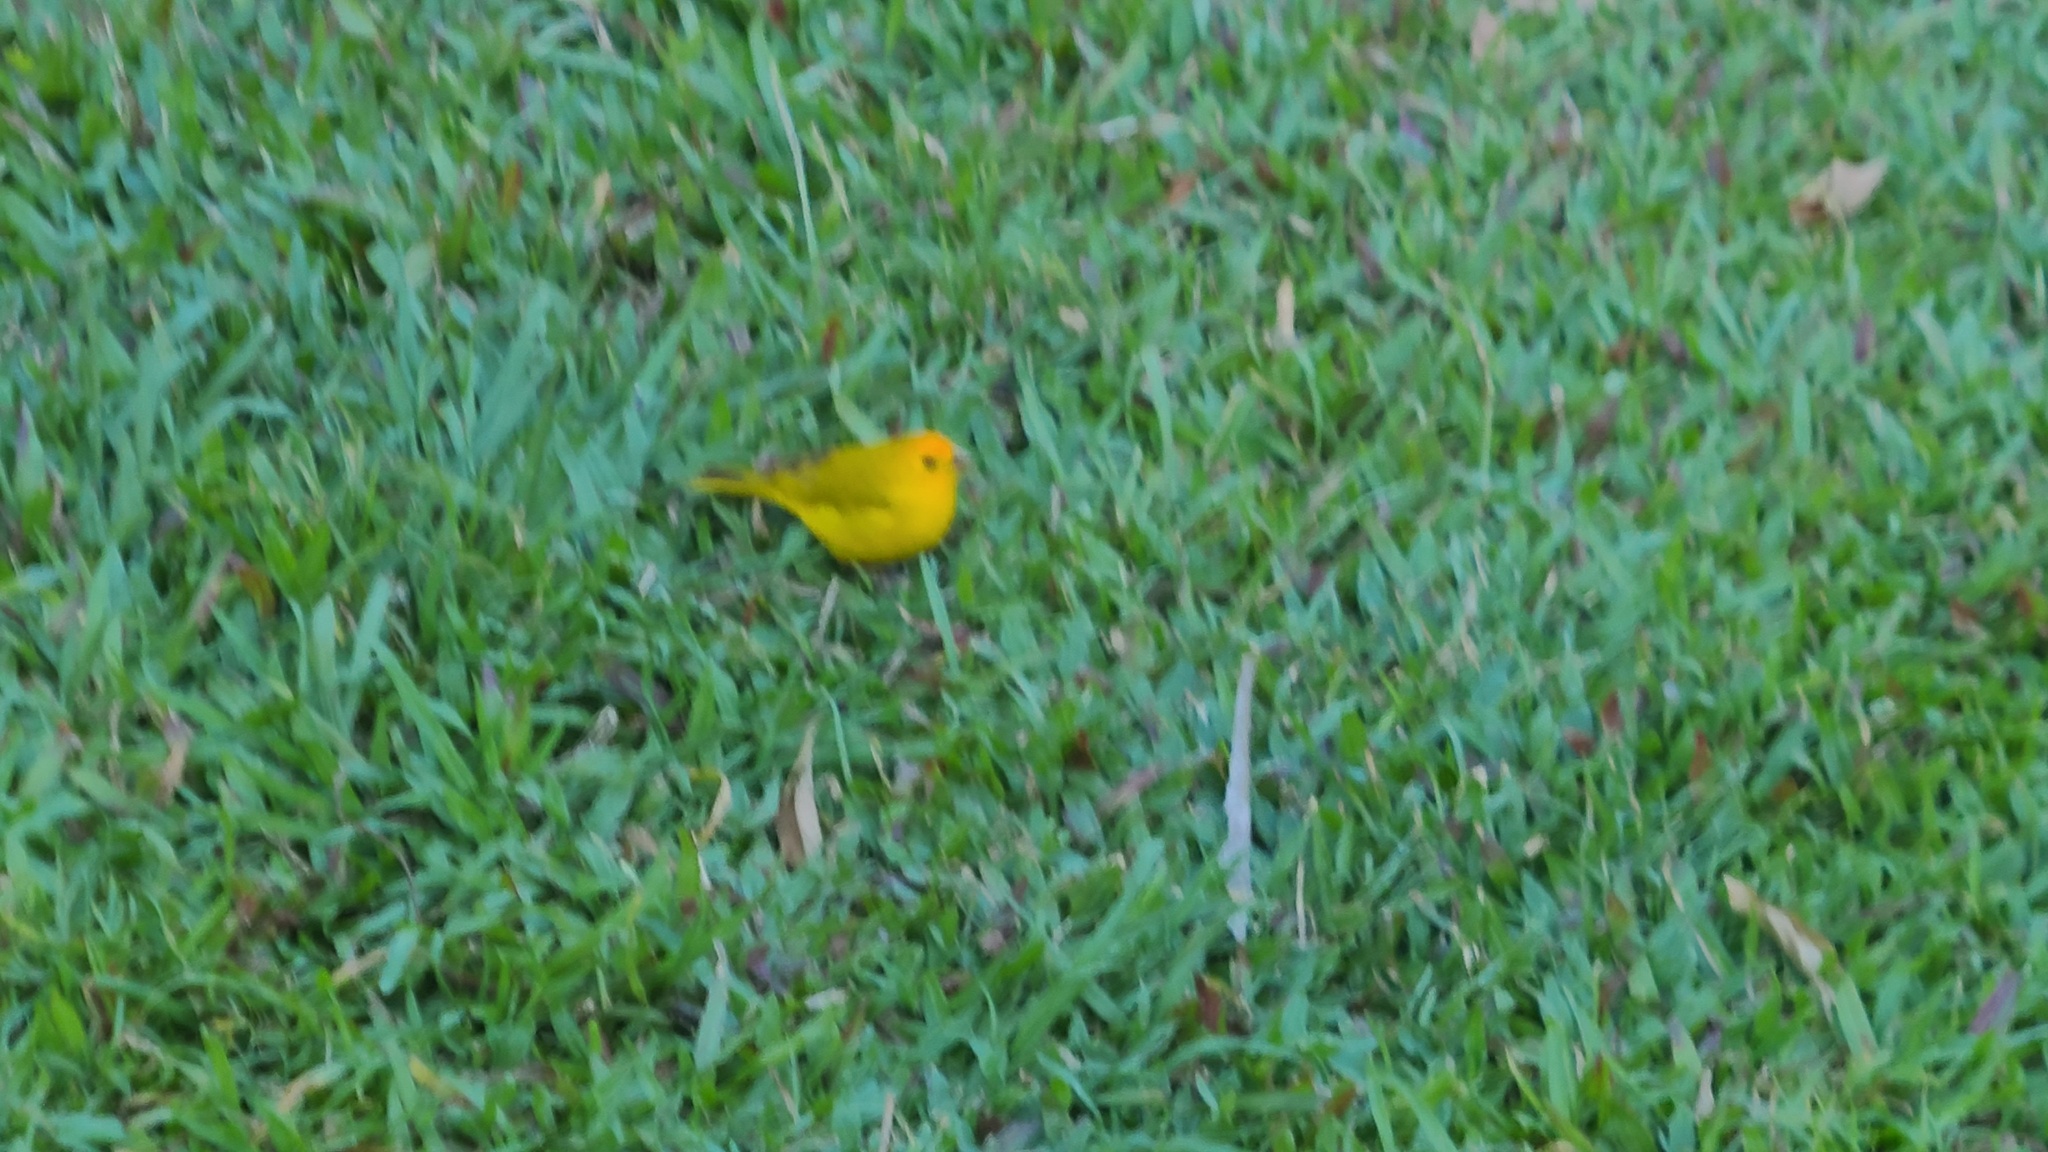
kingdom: Animalia
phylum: Chordata
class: Aves
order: Passeriformes
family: Thraupidae
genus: Sicalis
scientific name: Sicalis flaveola
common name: Saffron finch
